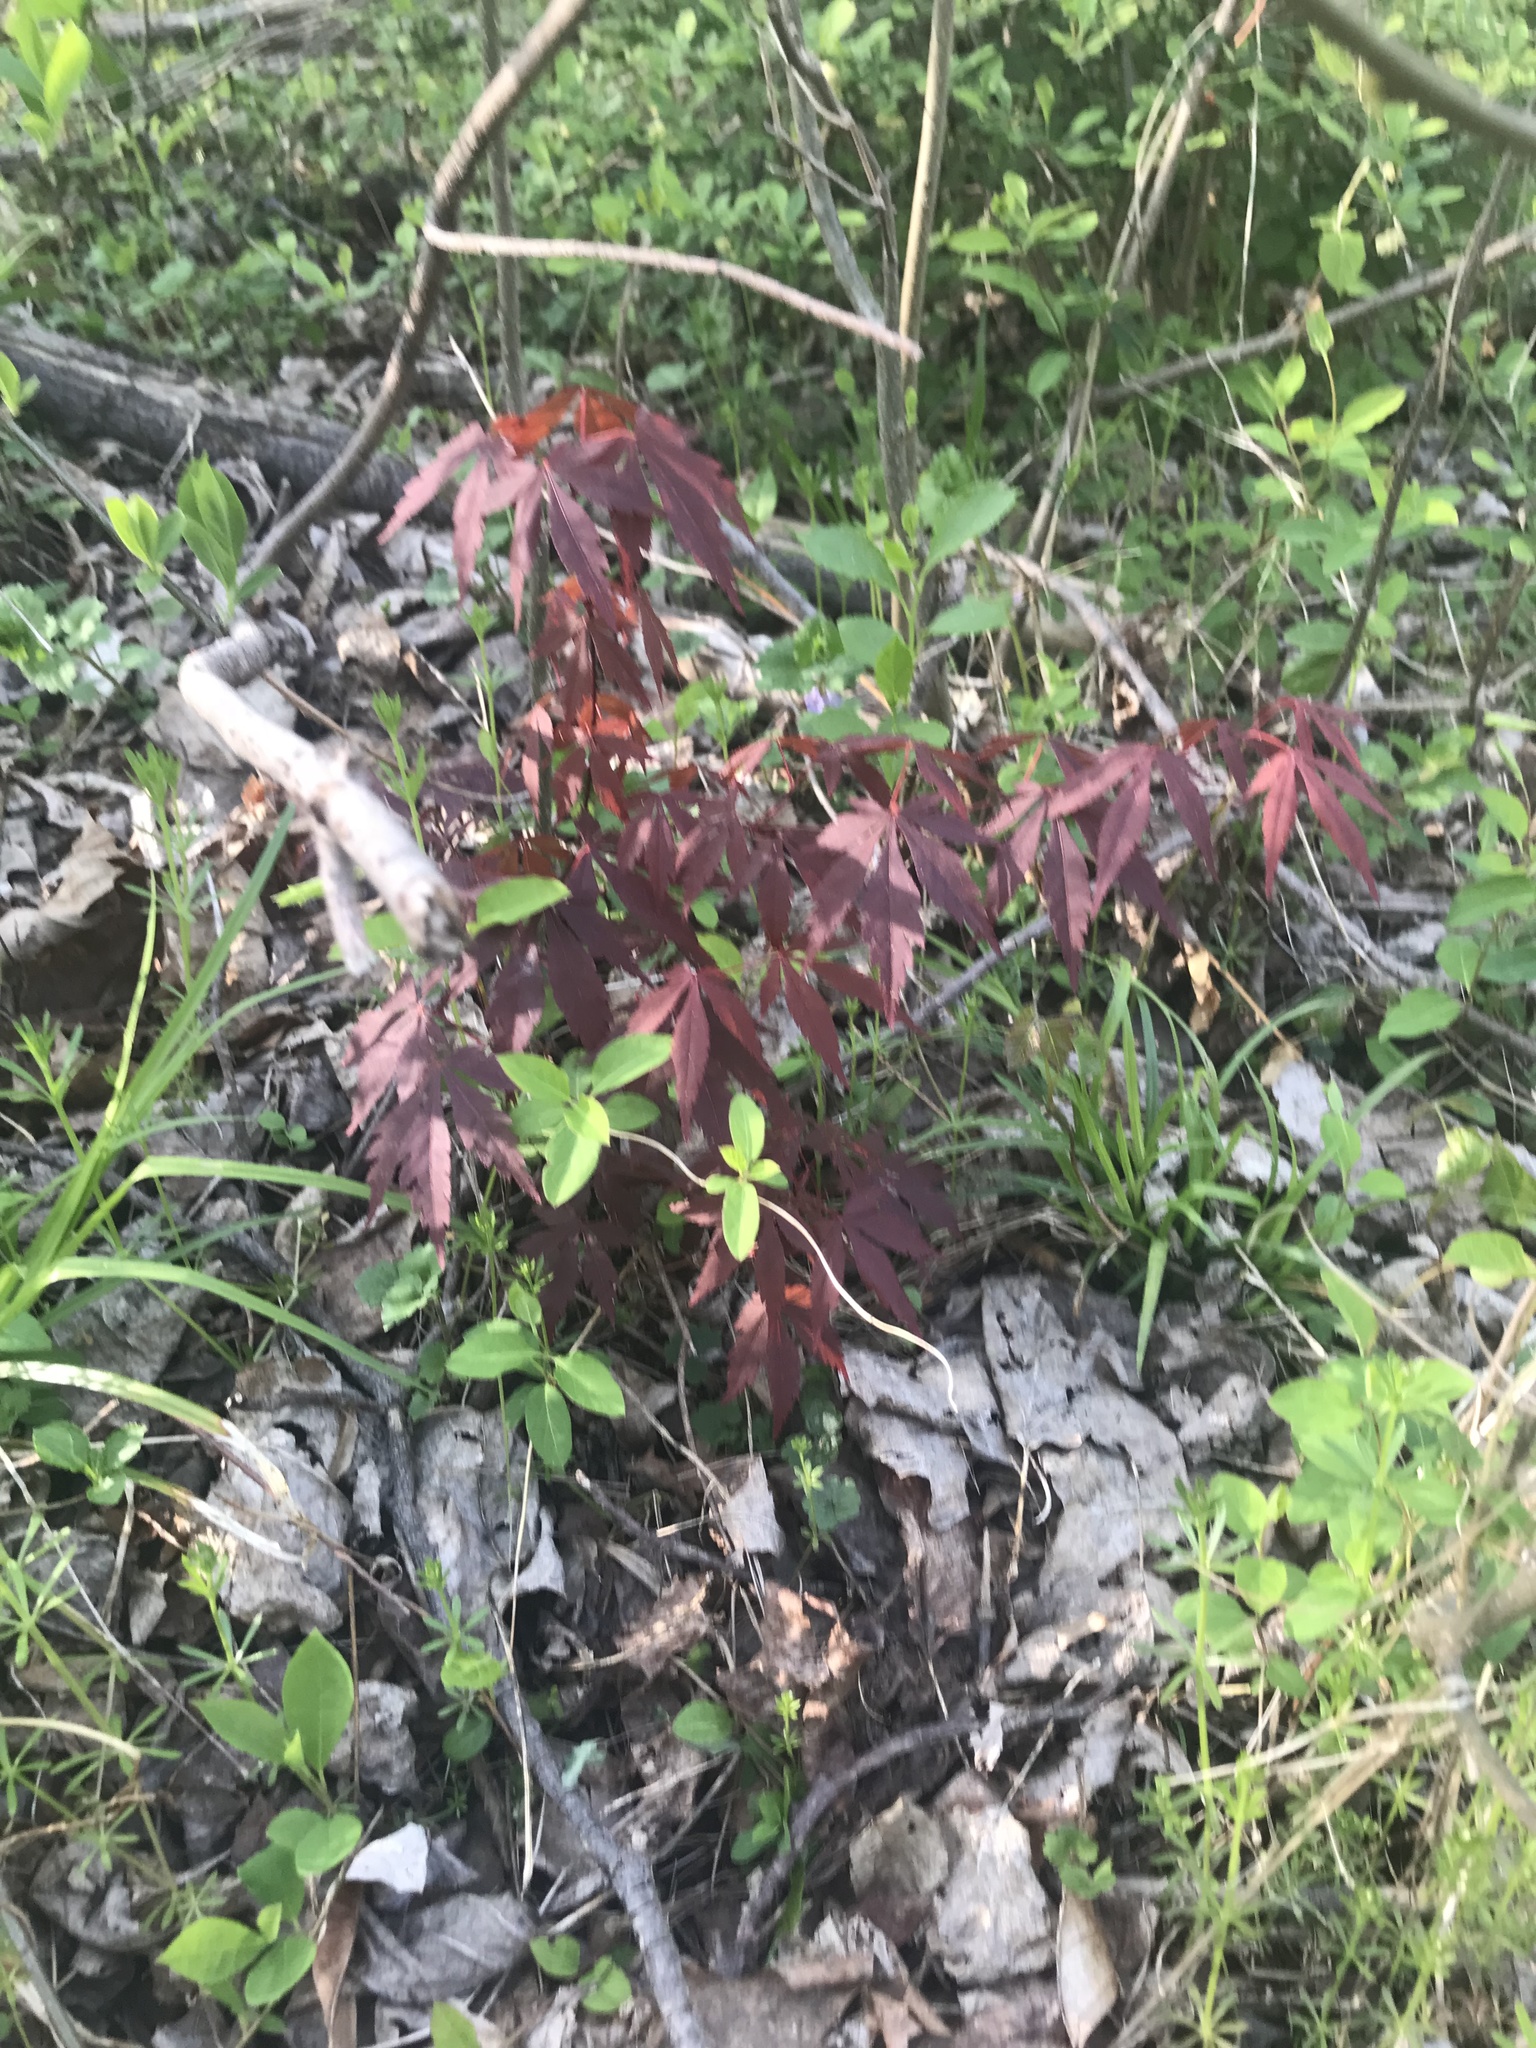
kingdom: Plantae
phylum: Tracheophyta
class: Magnoliopsida
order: Sapindales
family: Sapindaceae
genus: Acer
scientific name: Acer palmatum
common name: Japanese maple
